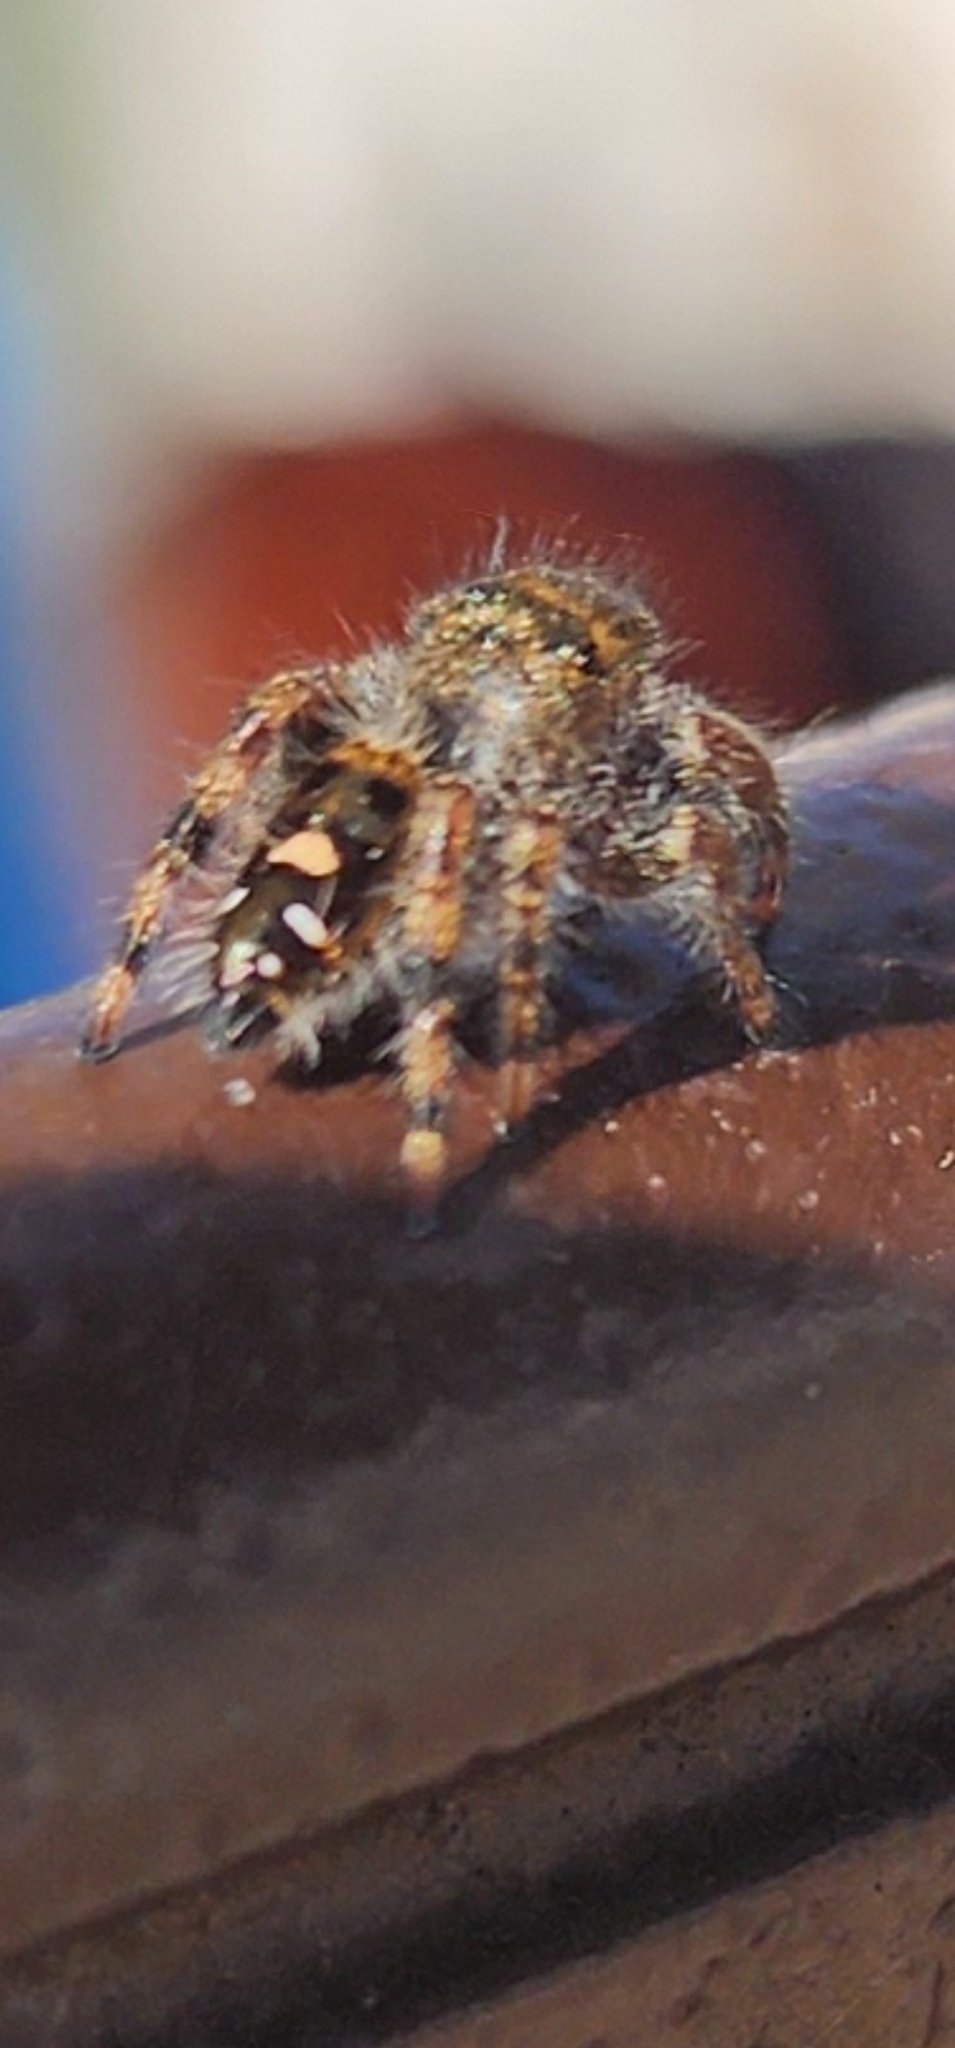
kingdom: Animalia
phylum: Arthropoda
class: Arachnida
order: Araneae
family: Salticidae
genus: Phidippus
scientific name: Phidippus audax
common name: Bold jumper
